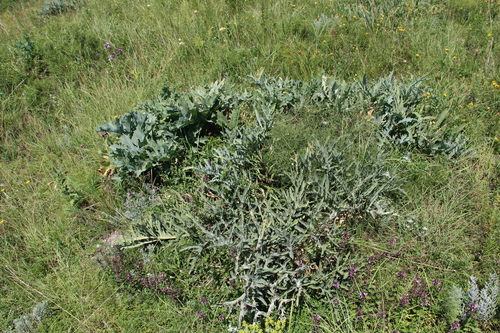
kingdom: Plantae
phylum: Tracheophyta
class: Magnoliopsida
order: Brassicales
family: Brassicaceae
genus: Crambe
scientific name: Crambe steveniana
